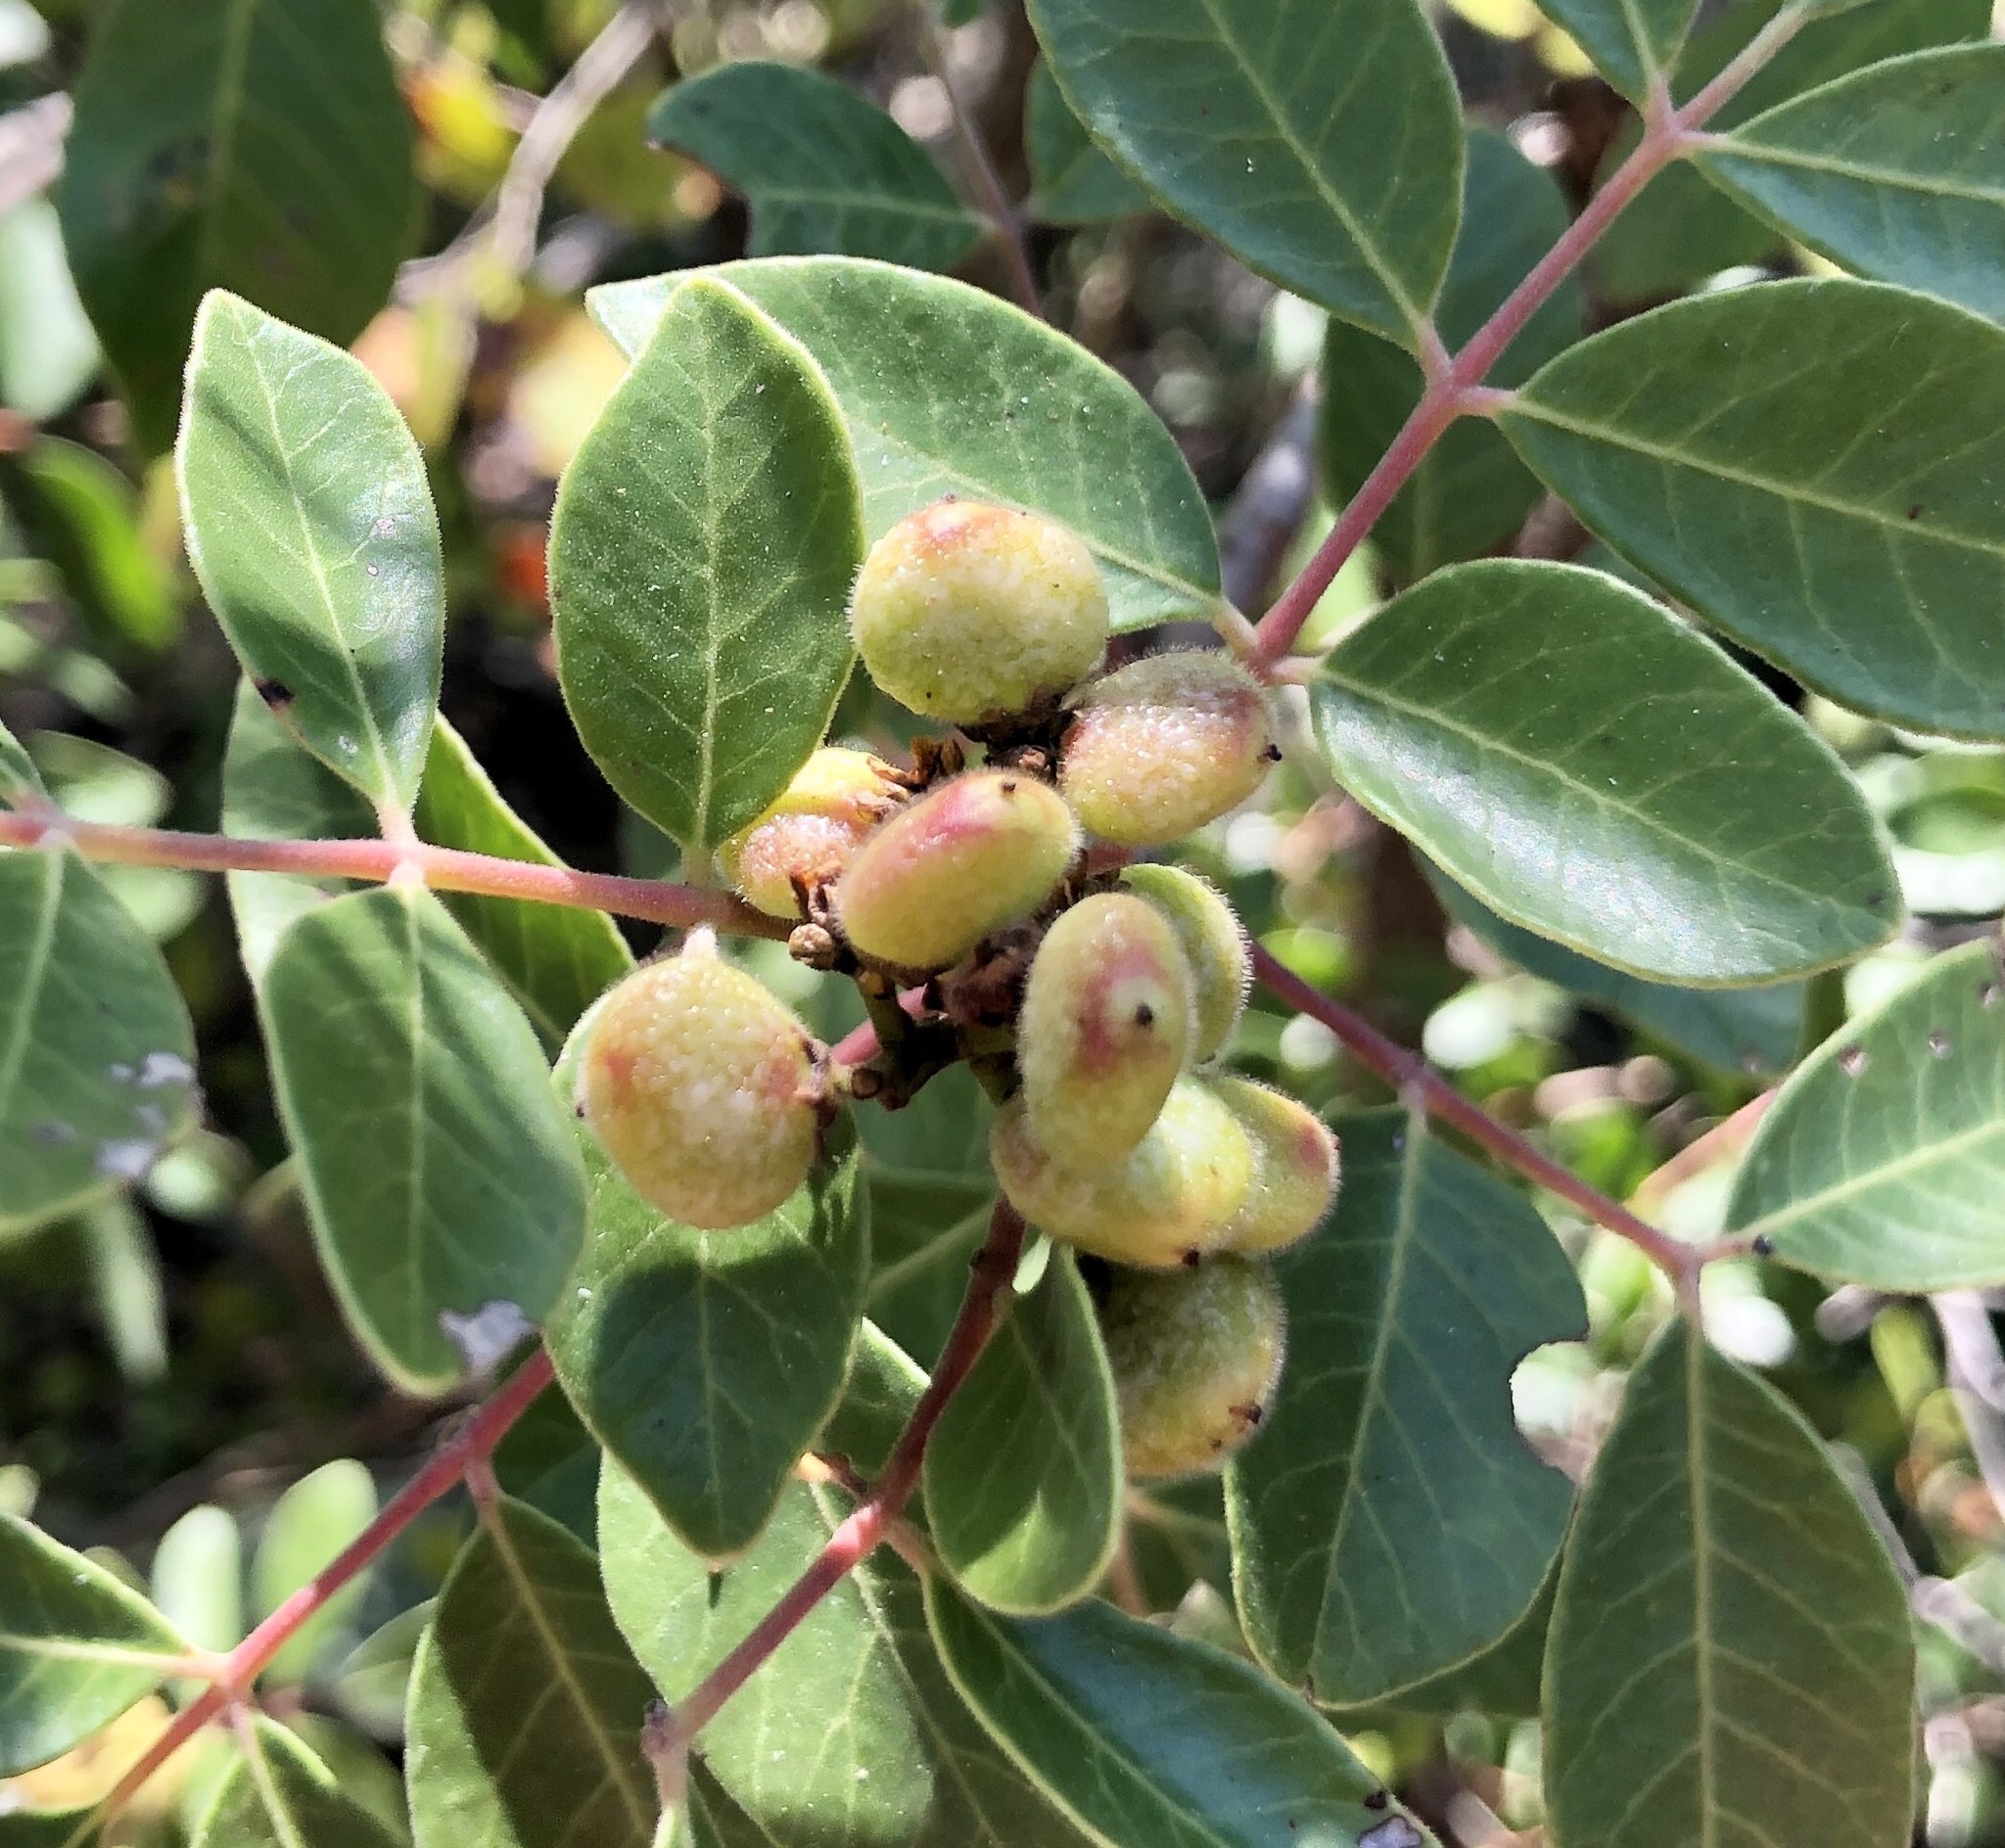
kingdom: Plantae
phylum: Tracheophyta
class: Magnoliopsida
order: Sapindales
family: Anacardiaceae
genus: Rhus
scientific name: Rhus virens
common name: Evergreen sumac
